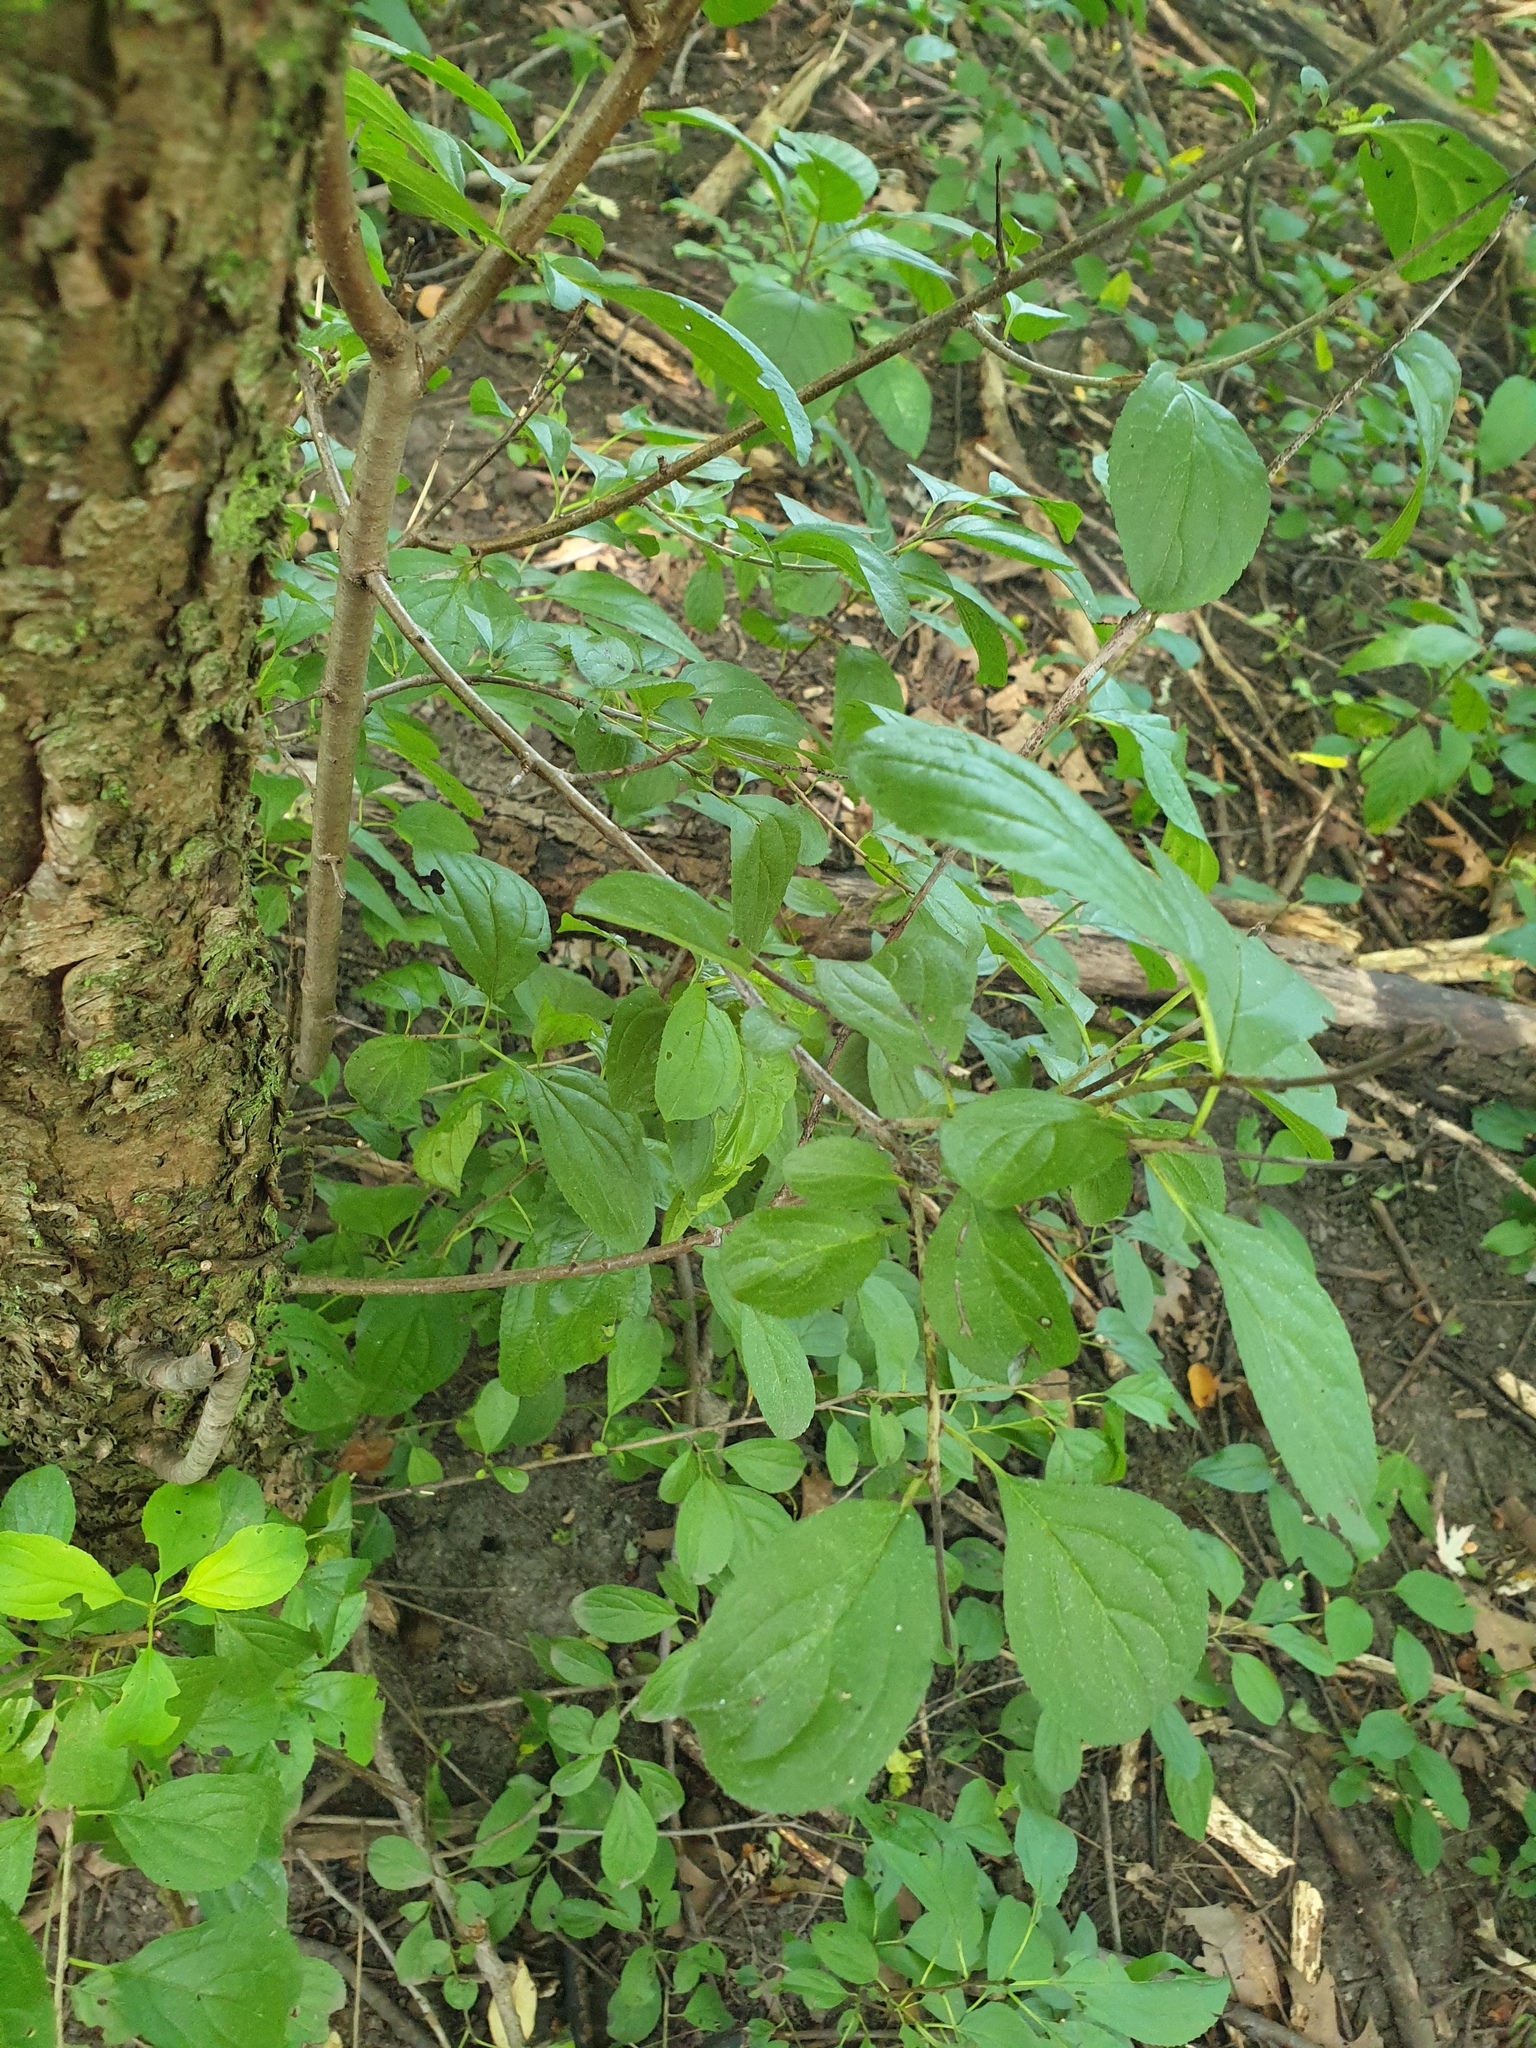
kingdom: Plantae
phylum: Tracheophyta
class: Magnoliopsida
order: Rosales
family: Rhamnaceae
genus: Rhamnus
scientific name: Rhamnus cathartica
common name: Common buckthorn
